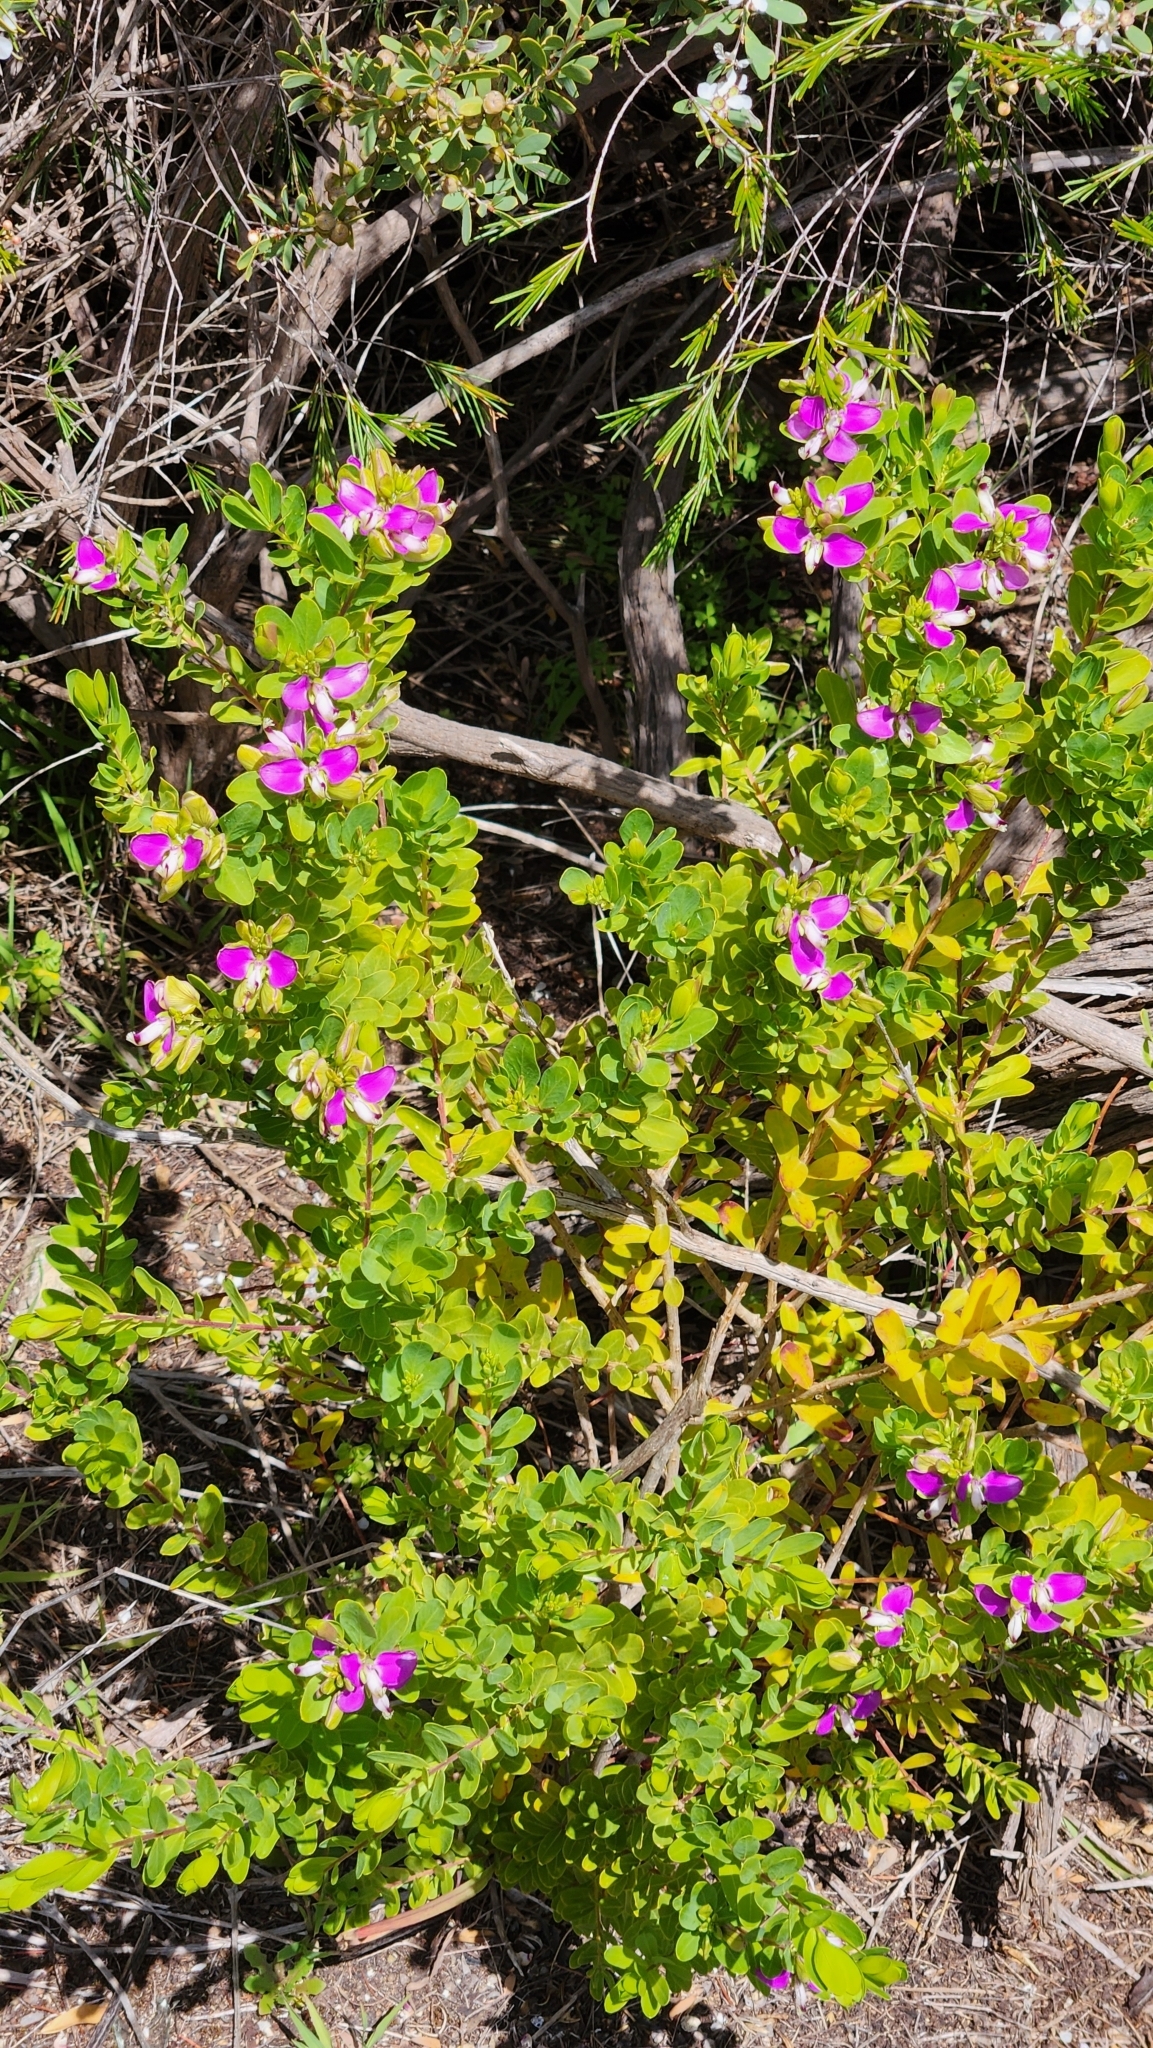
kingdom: Plantae
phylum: Tracheophyta
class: Magnoliopsida
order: Fabales
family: Polygalaceae
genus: Polygala
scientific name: Polygala myrtifolia
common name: Myrtle-leaf milkwort
